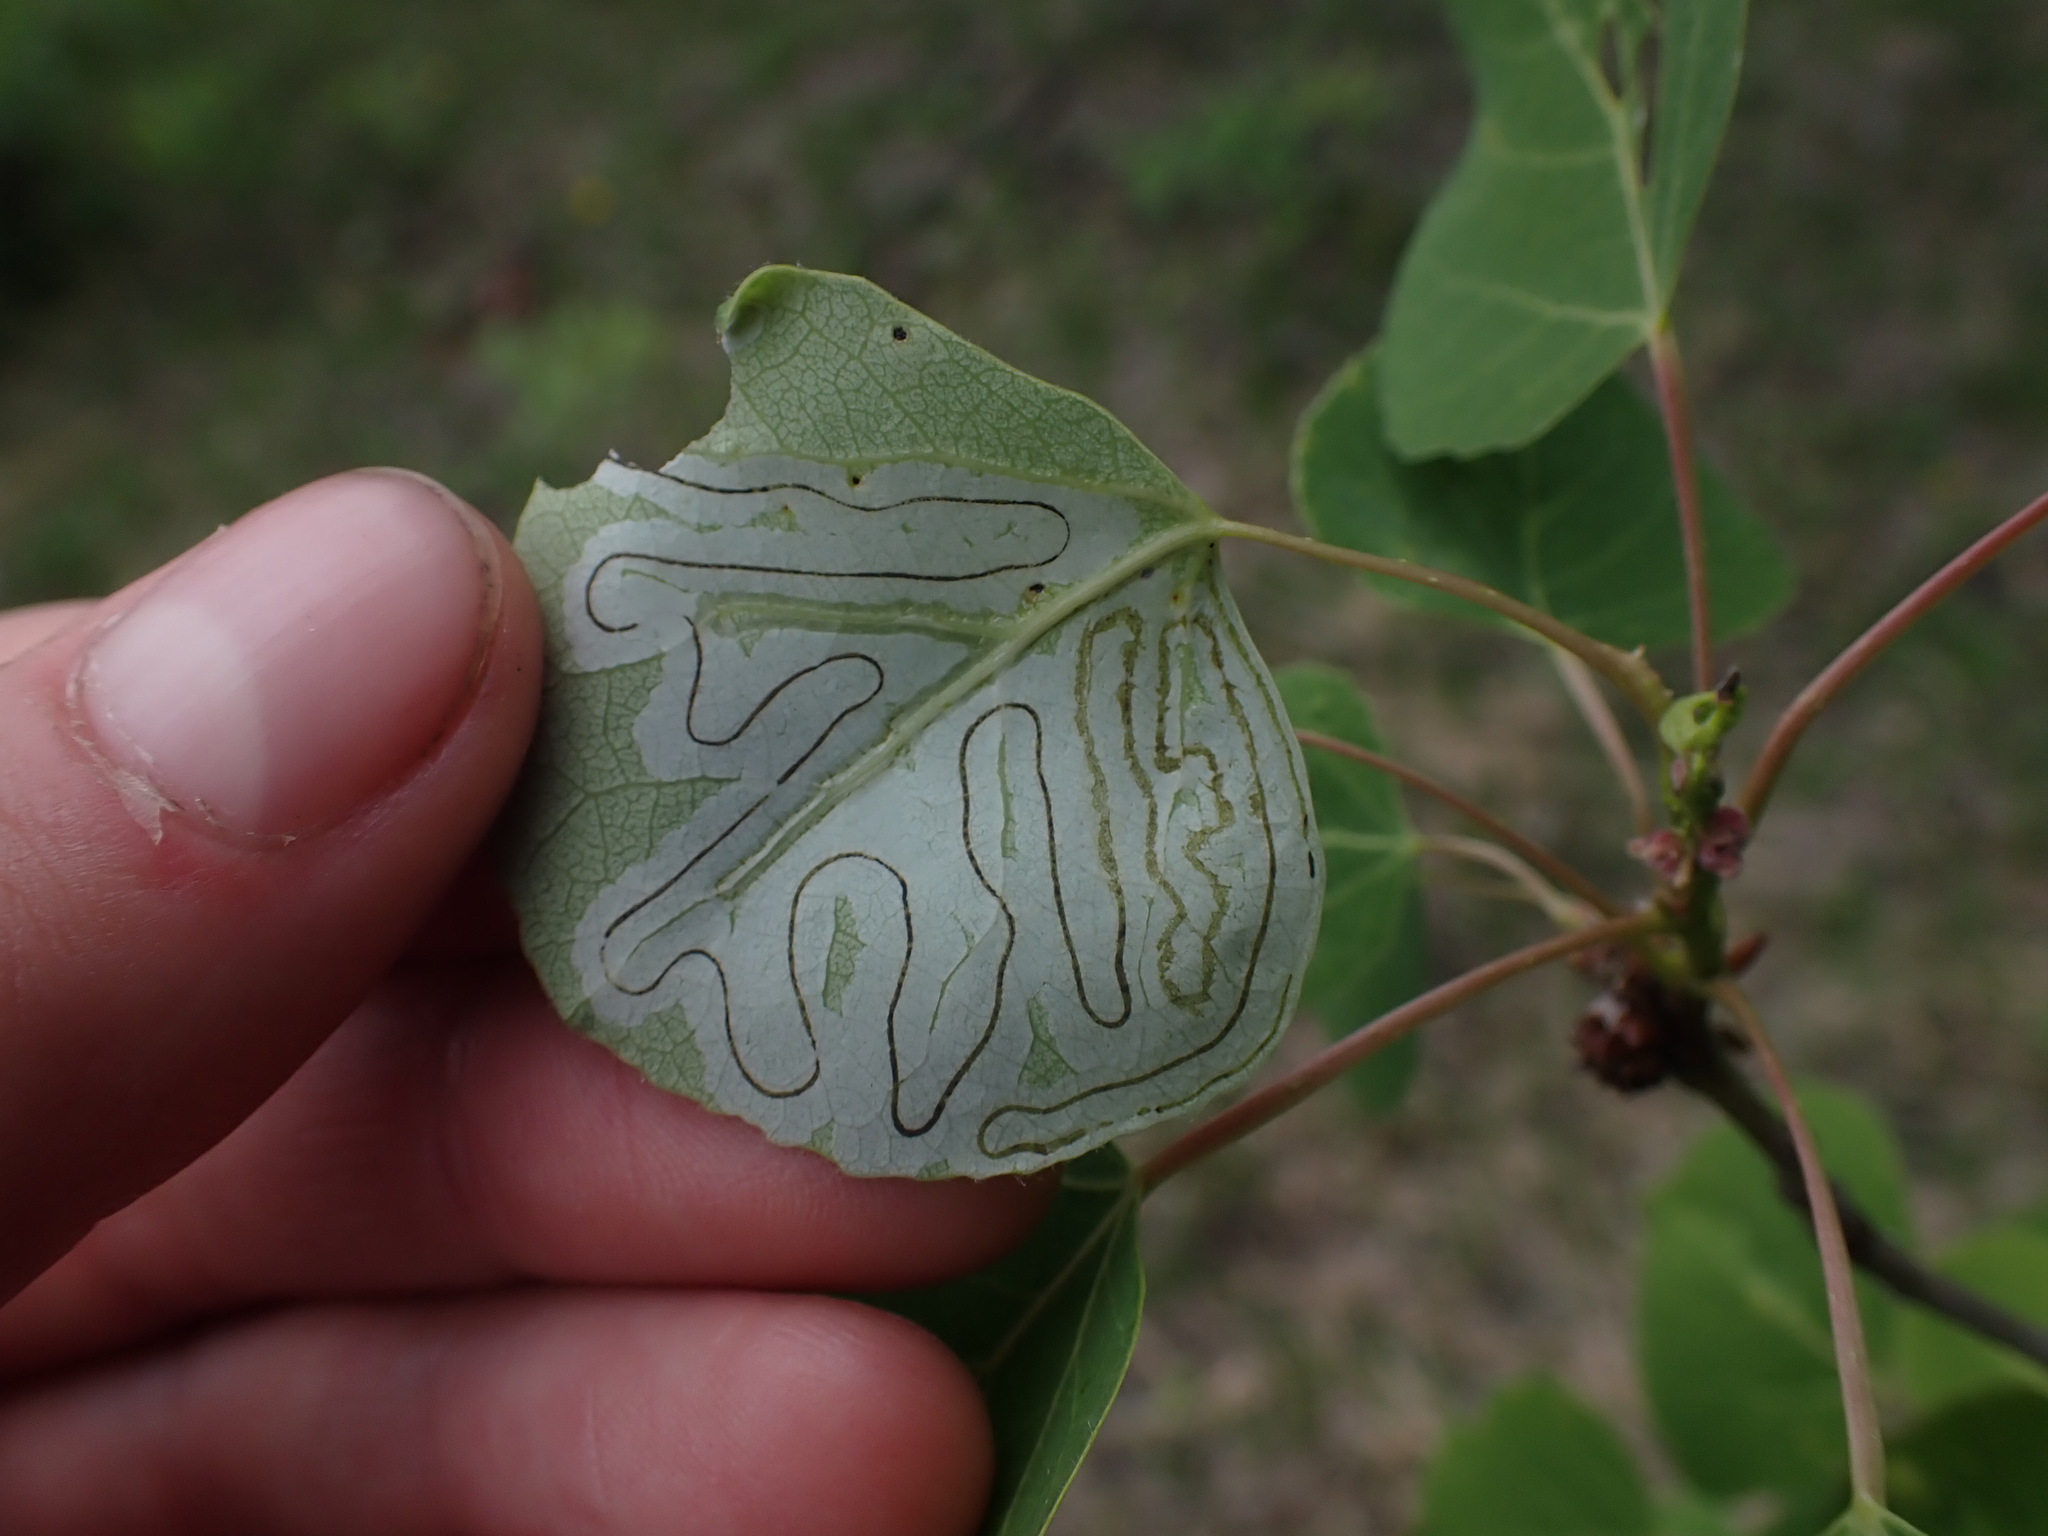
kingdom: Animalia
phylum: Arthropoda
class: Insecta
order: Lepidoptera
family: Gracillariidae
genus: Phyllocnistis
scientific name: Phyllocnistis populiella
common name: Aspen serpentine leafminer moth
